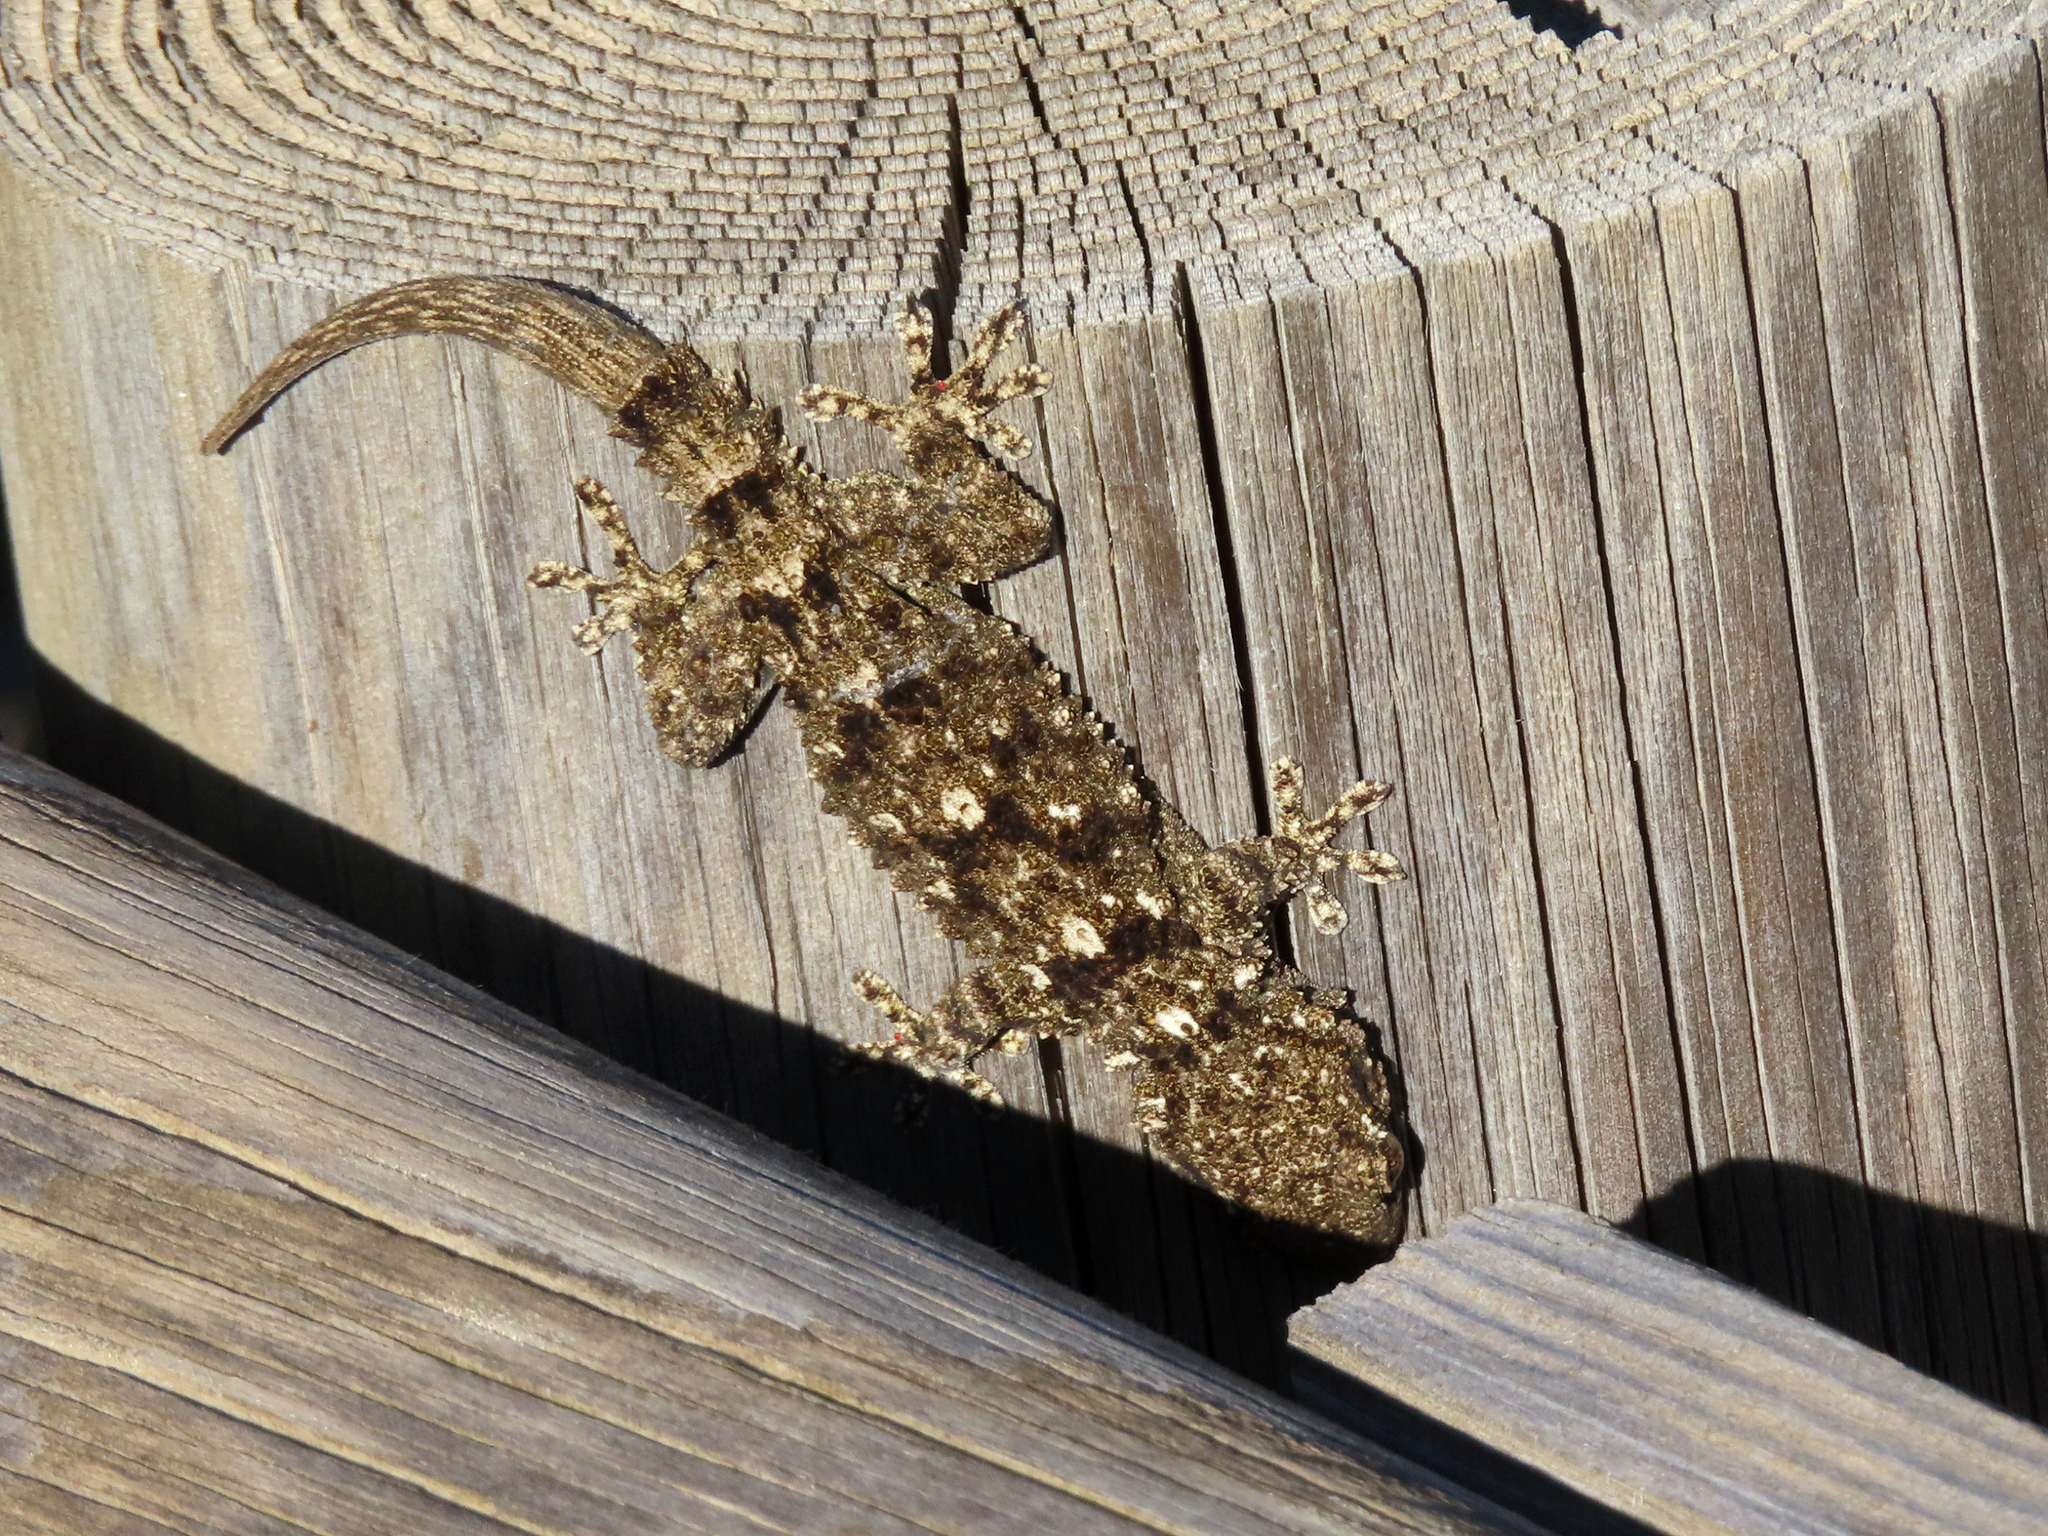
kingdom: Animalia
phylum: Chordata
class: Squamata
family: Phyllodactylidae
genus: Tarentola
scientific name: Tarentola mauritanica
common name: Moorish gecko
